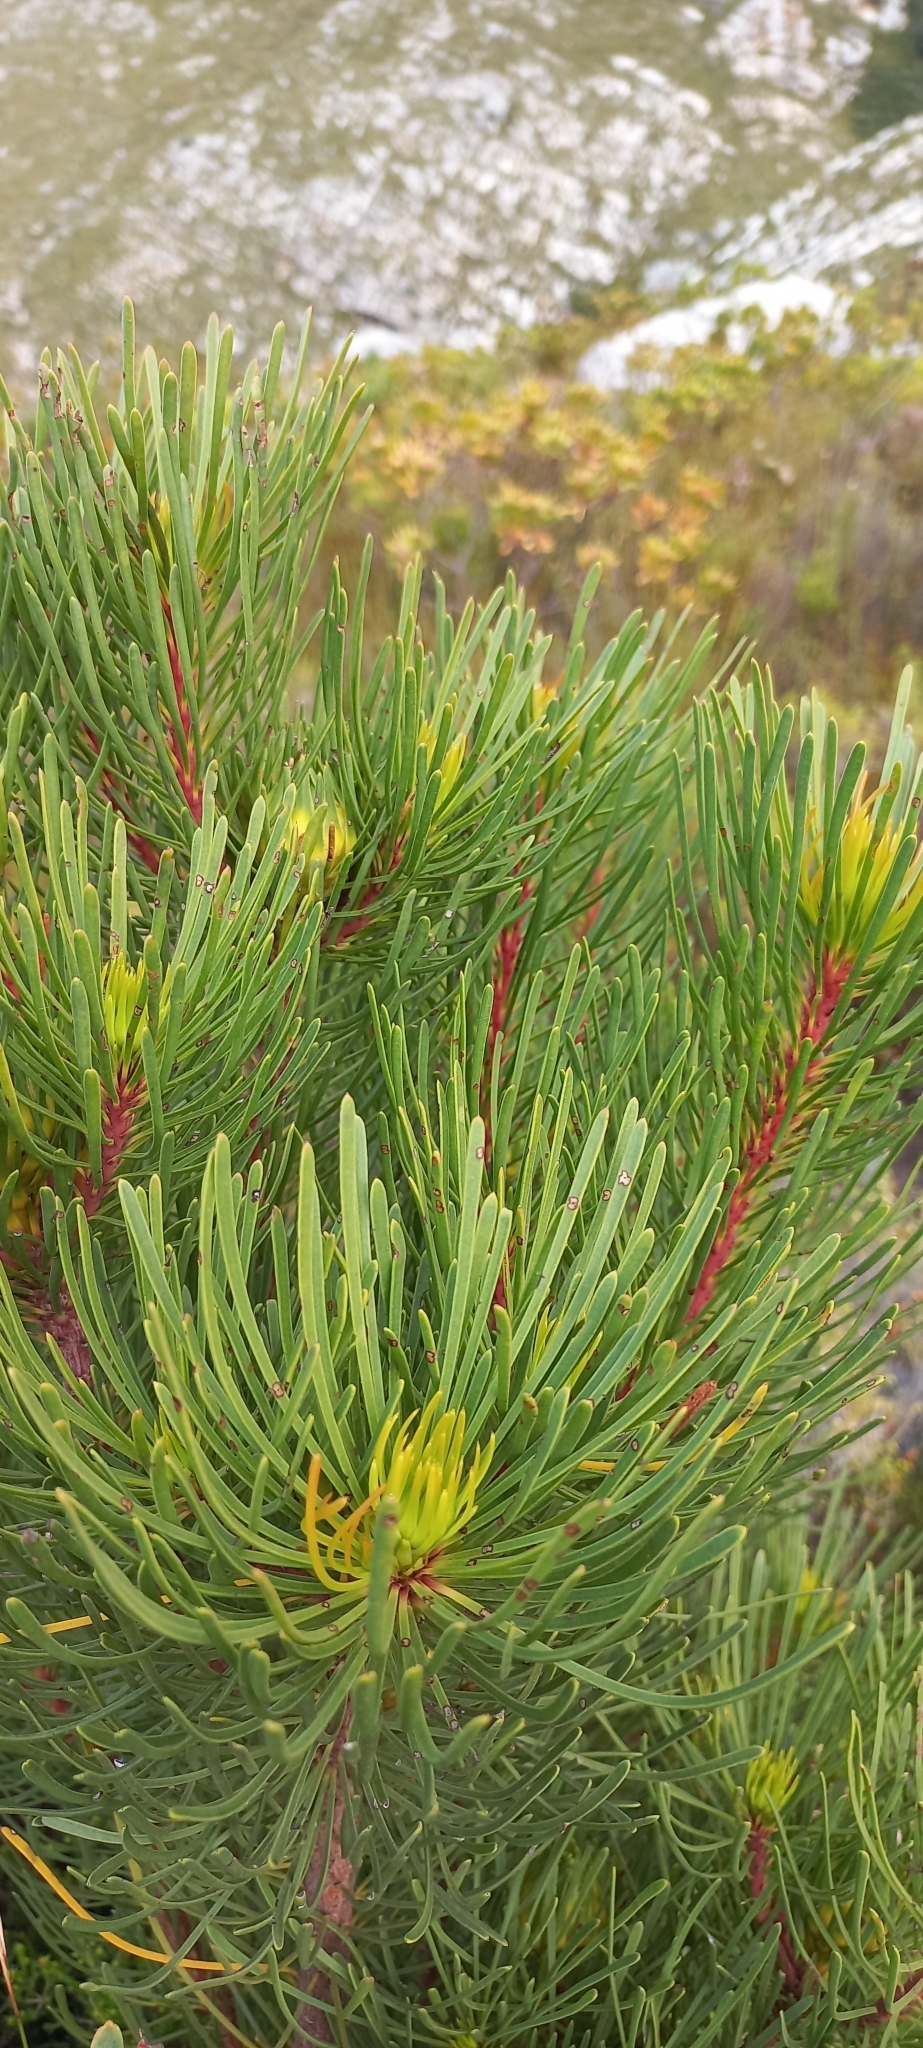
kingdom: Plantae
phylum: Tracheophyta
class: Magnoliopsida
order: Proteales
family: Proteaceae
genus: Aulax
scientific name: Aulax cancellata
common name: Channel-leaf featherbush
